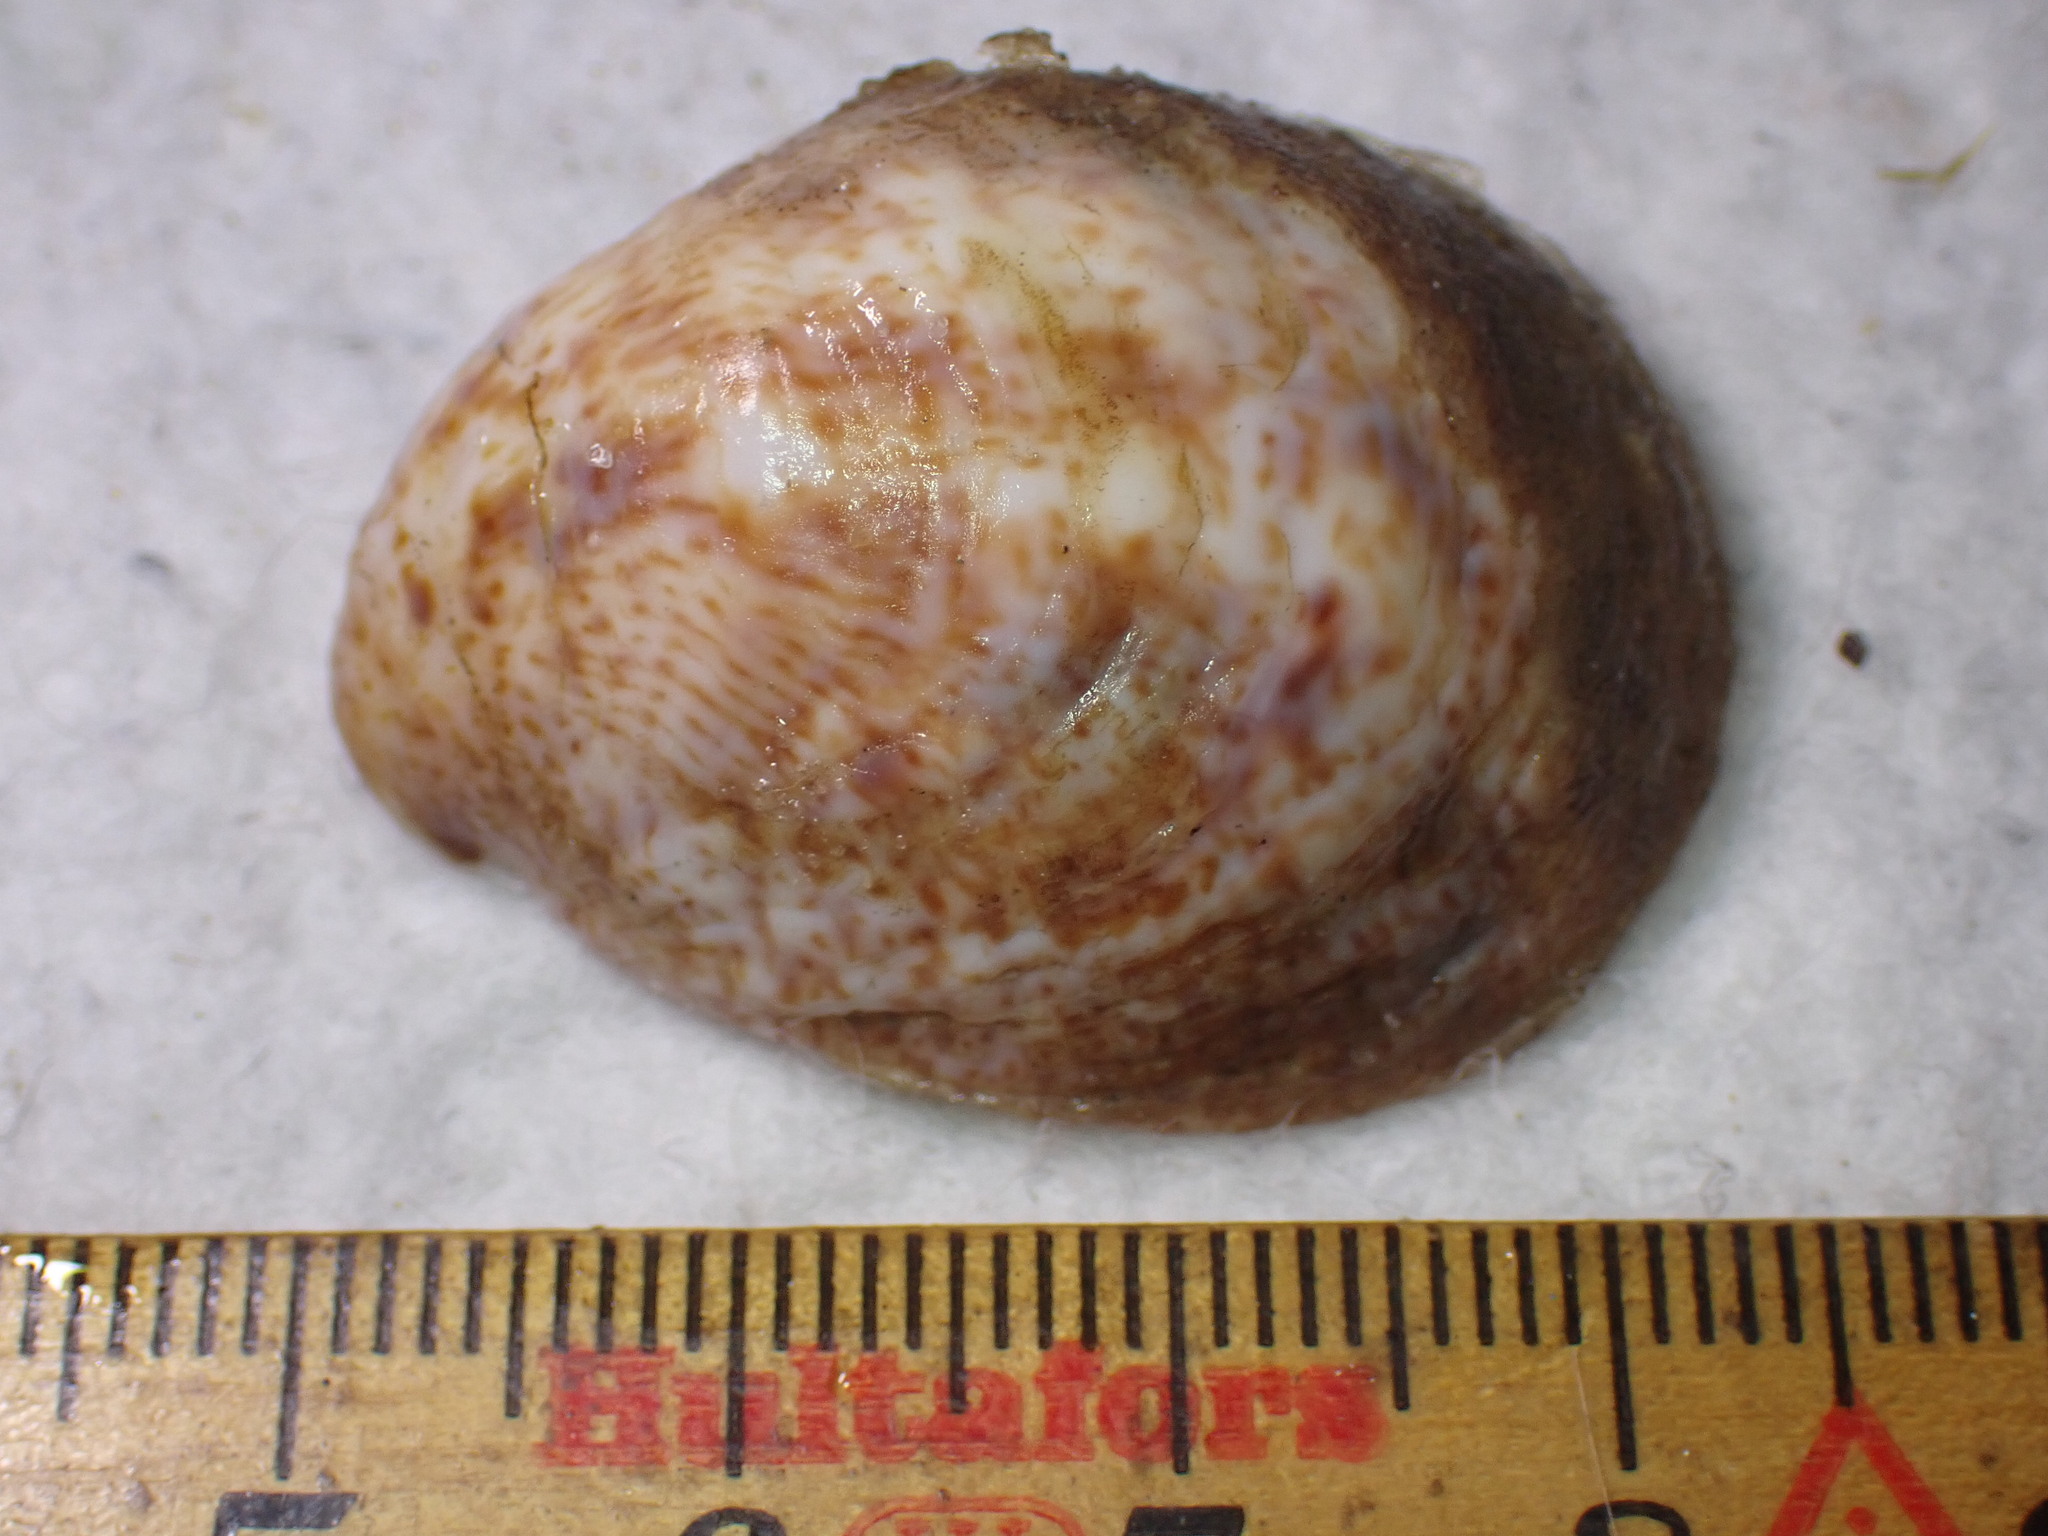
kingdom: Animalia
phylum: Mollusca
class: Gastropoda
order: Littorinimorpha
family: Calyptraeidae
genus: Crepidula
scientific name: Crepidula fornicata
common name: Slipper limpet
